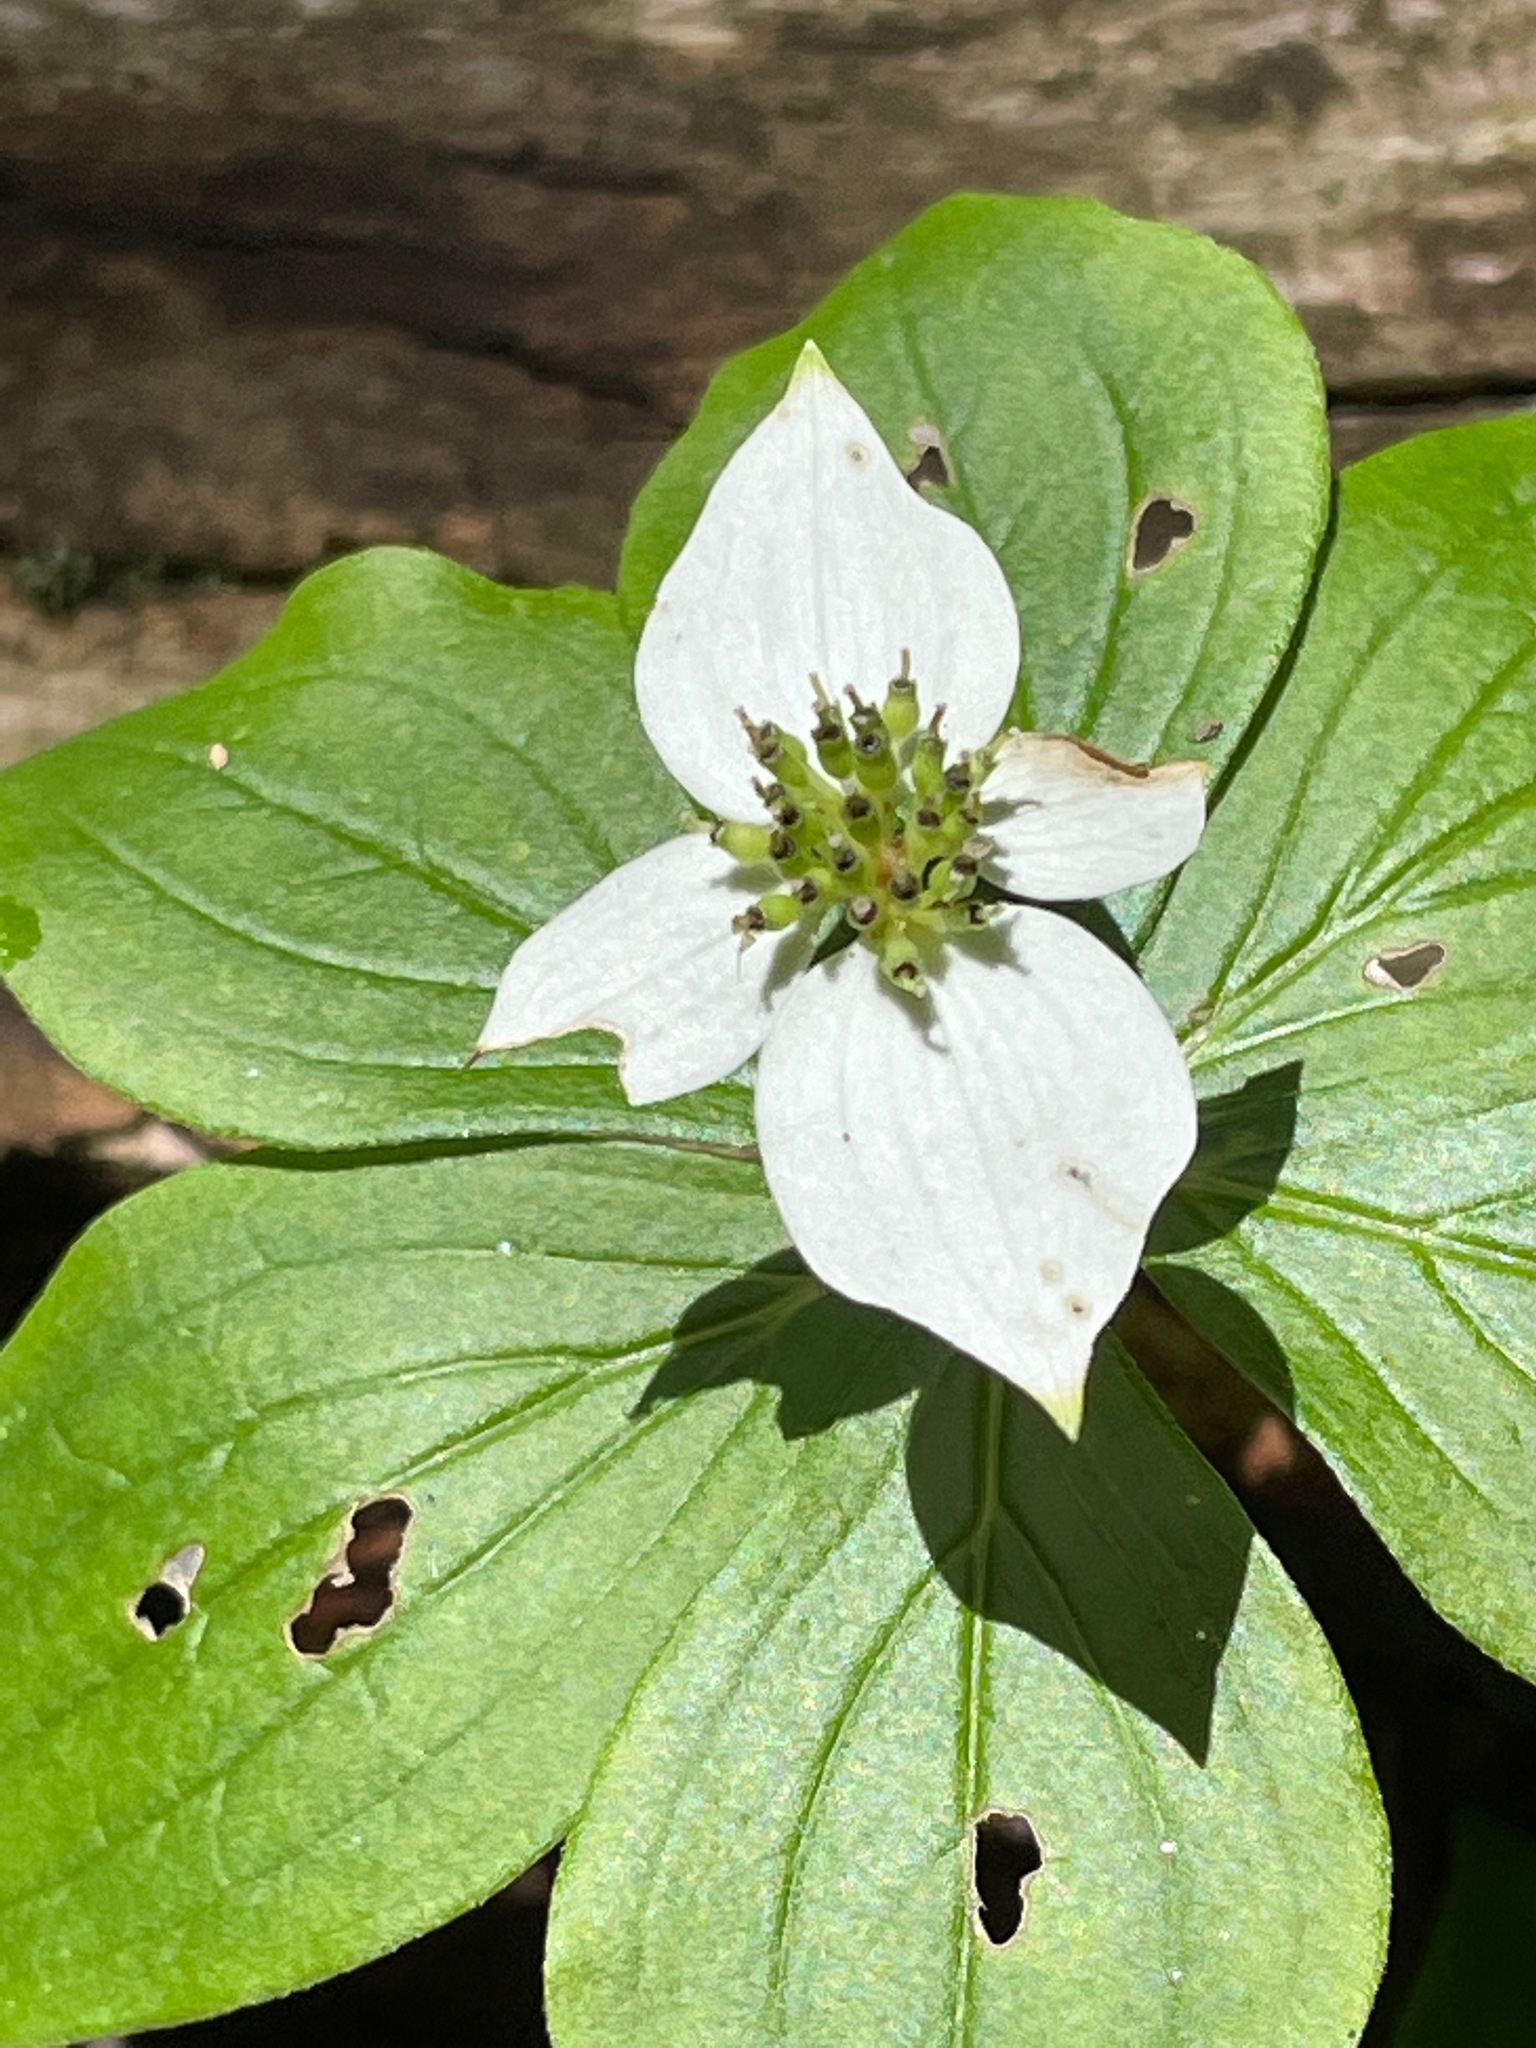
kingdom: Plantae
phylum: Tracheophyta
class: Magnoliopsida
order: Cornales
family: Cornaceae
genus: Cornus
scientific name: Cornus canadensis
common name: Creeping dogwood
